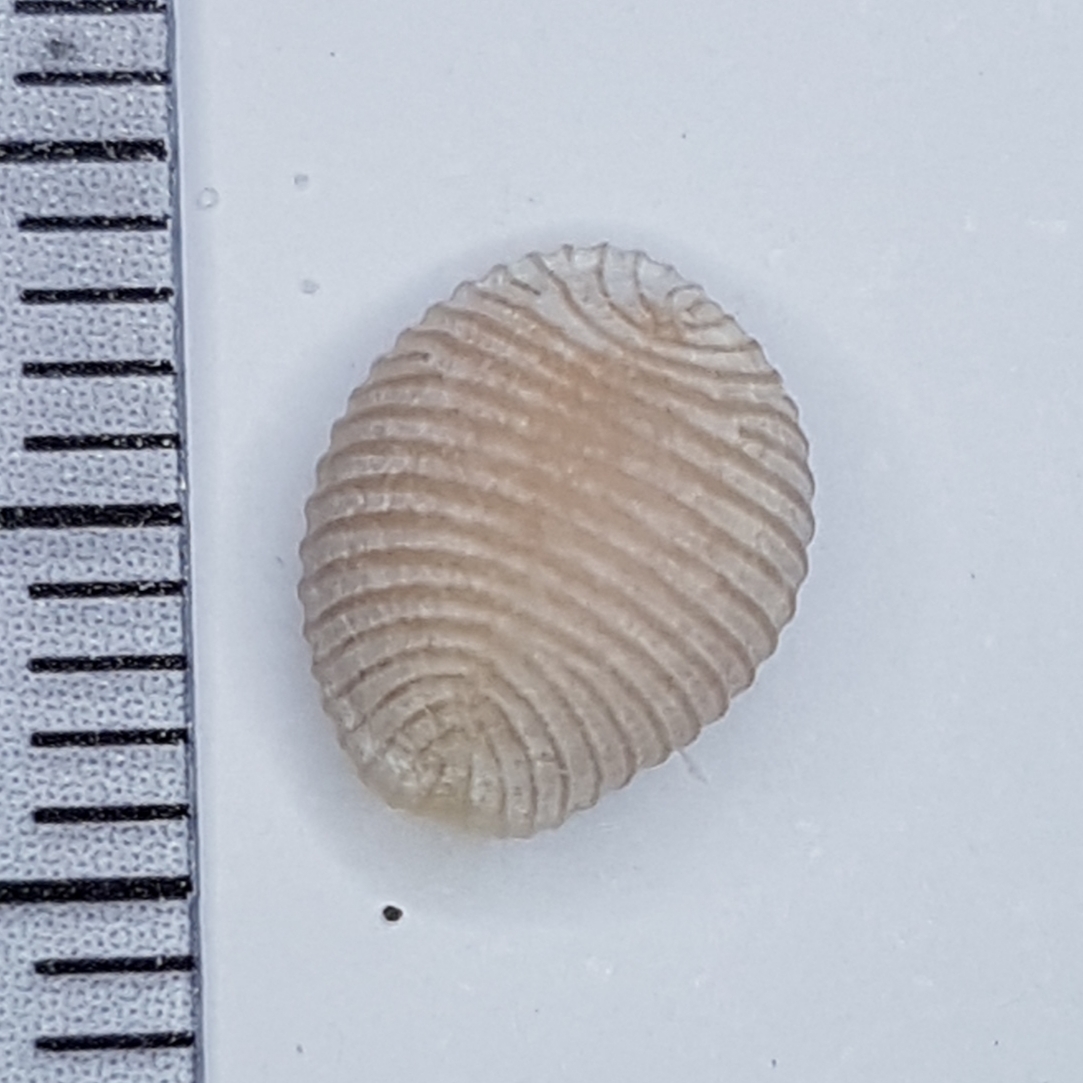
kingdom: Animalia
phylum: Mollusca
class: Gastropoda
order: Littorinimorpha
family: Triviidae
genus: Trivia
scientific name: Trivia arctica
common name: Arctic cowrie
